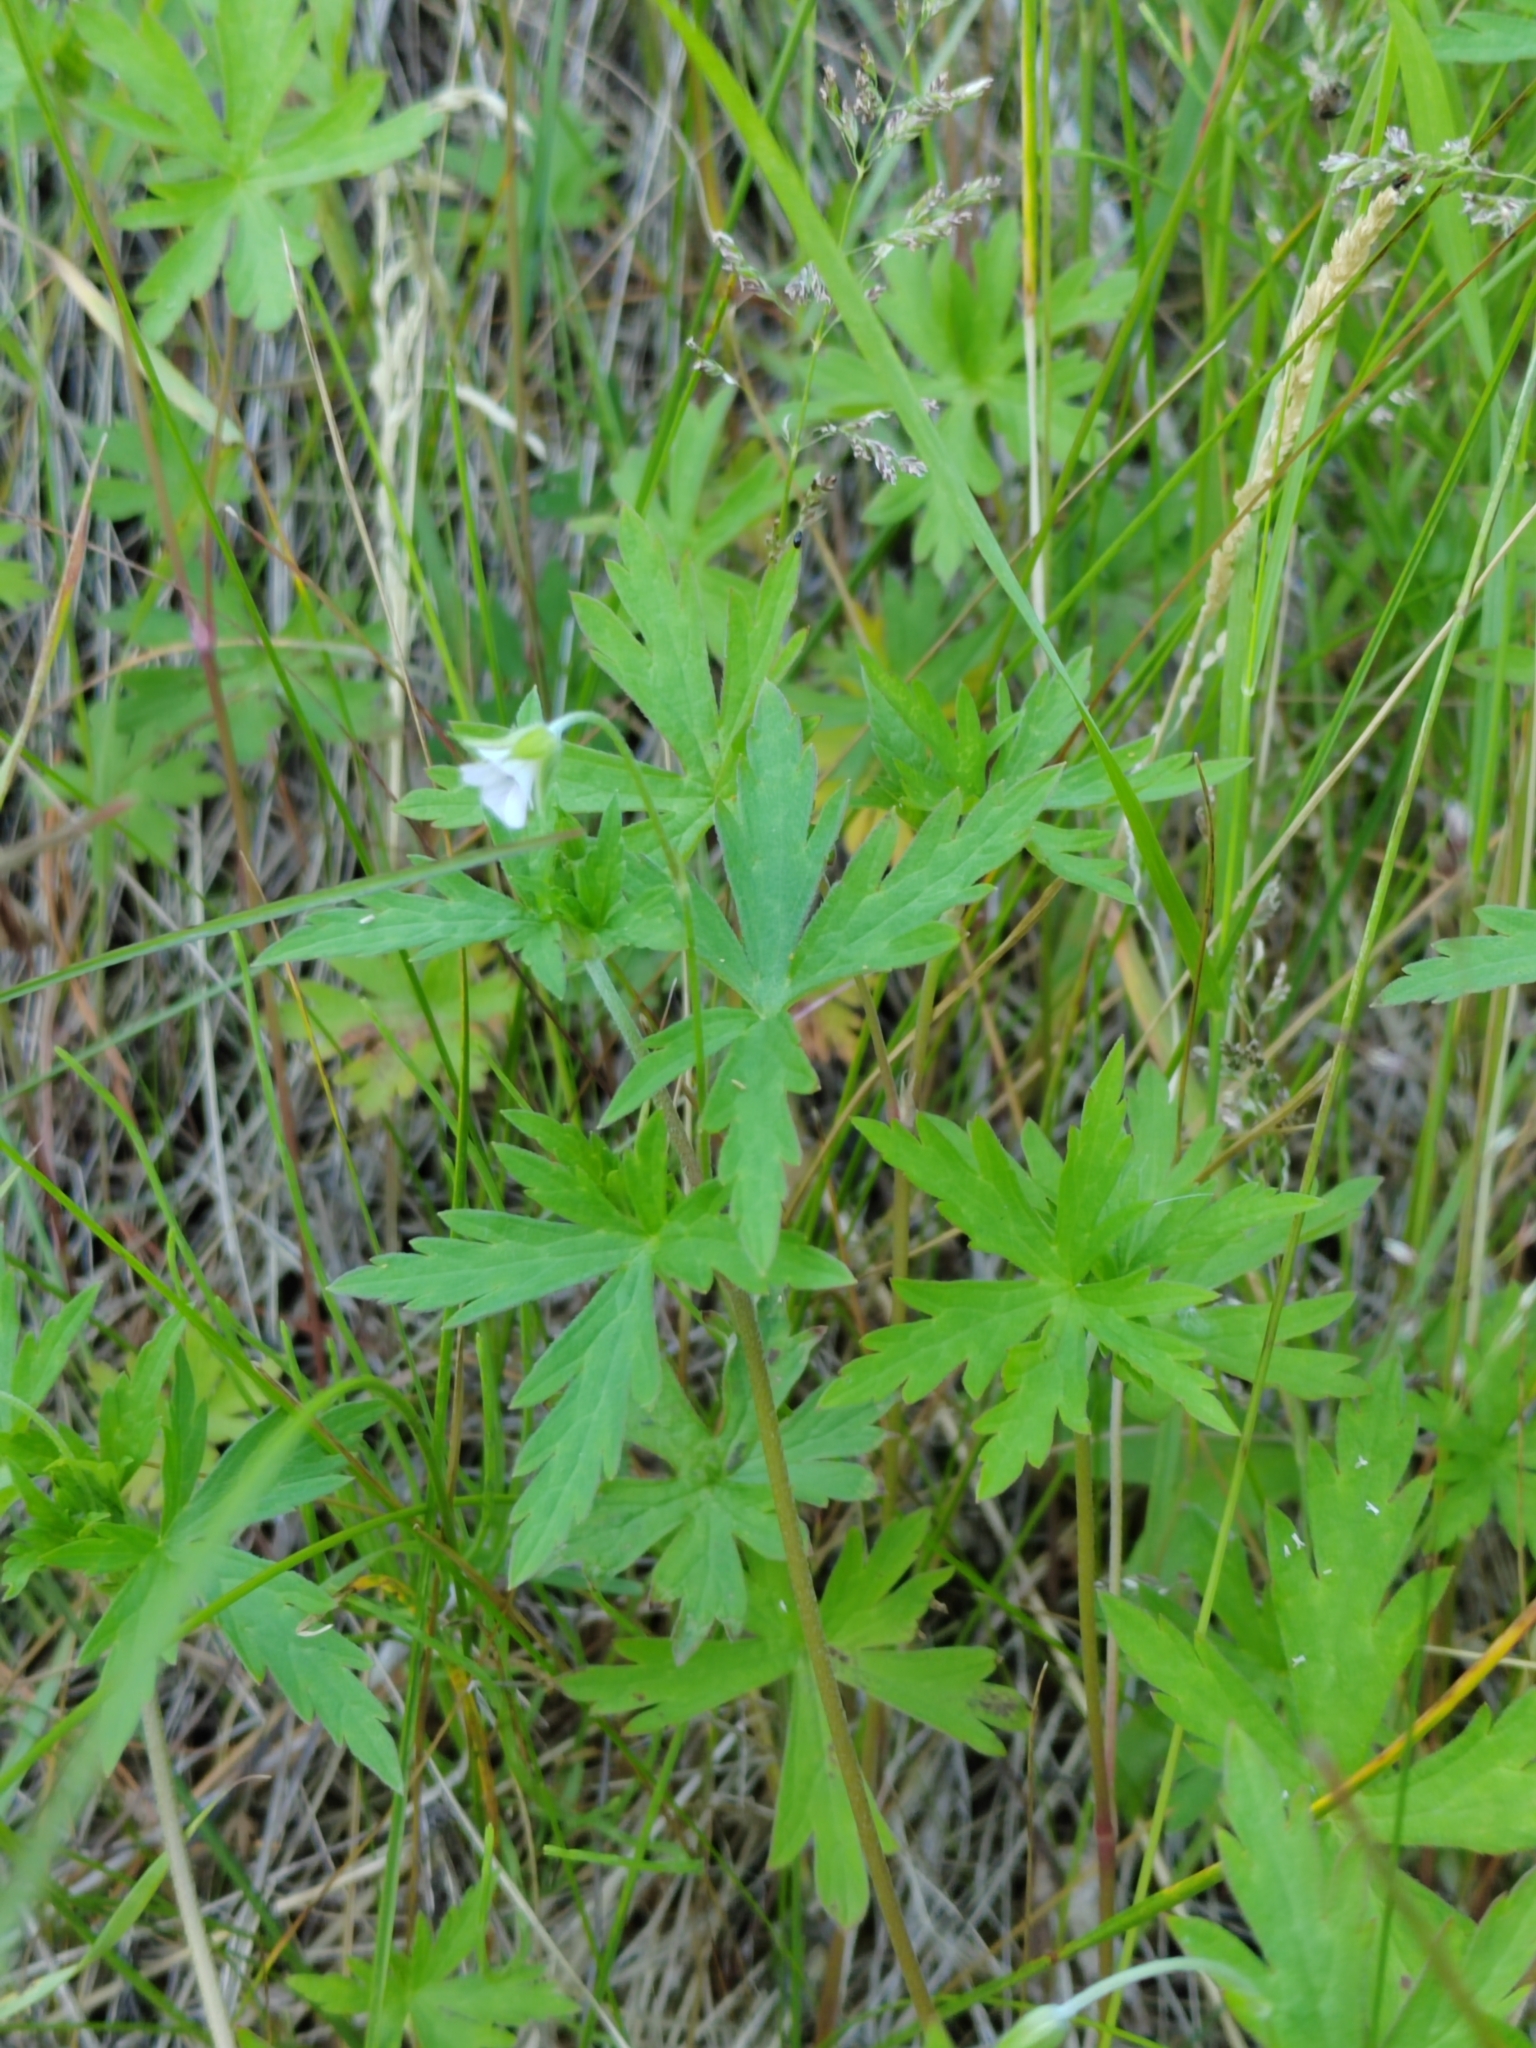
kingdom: Plantae
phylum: Tracheophyta
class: Magnoliopsida
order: Geraniales
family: Geraniaceae
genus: Geranium
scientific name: Geranium sibiricum
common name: Siberian crane's-bill
